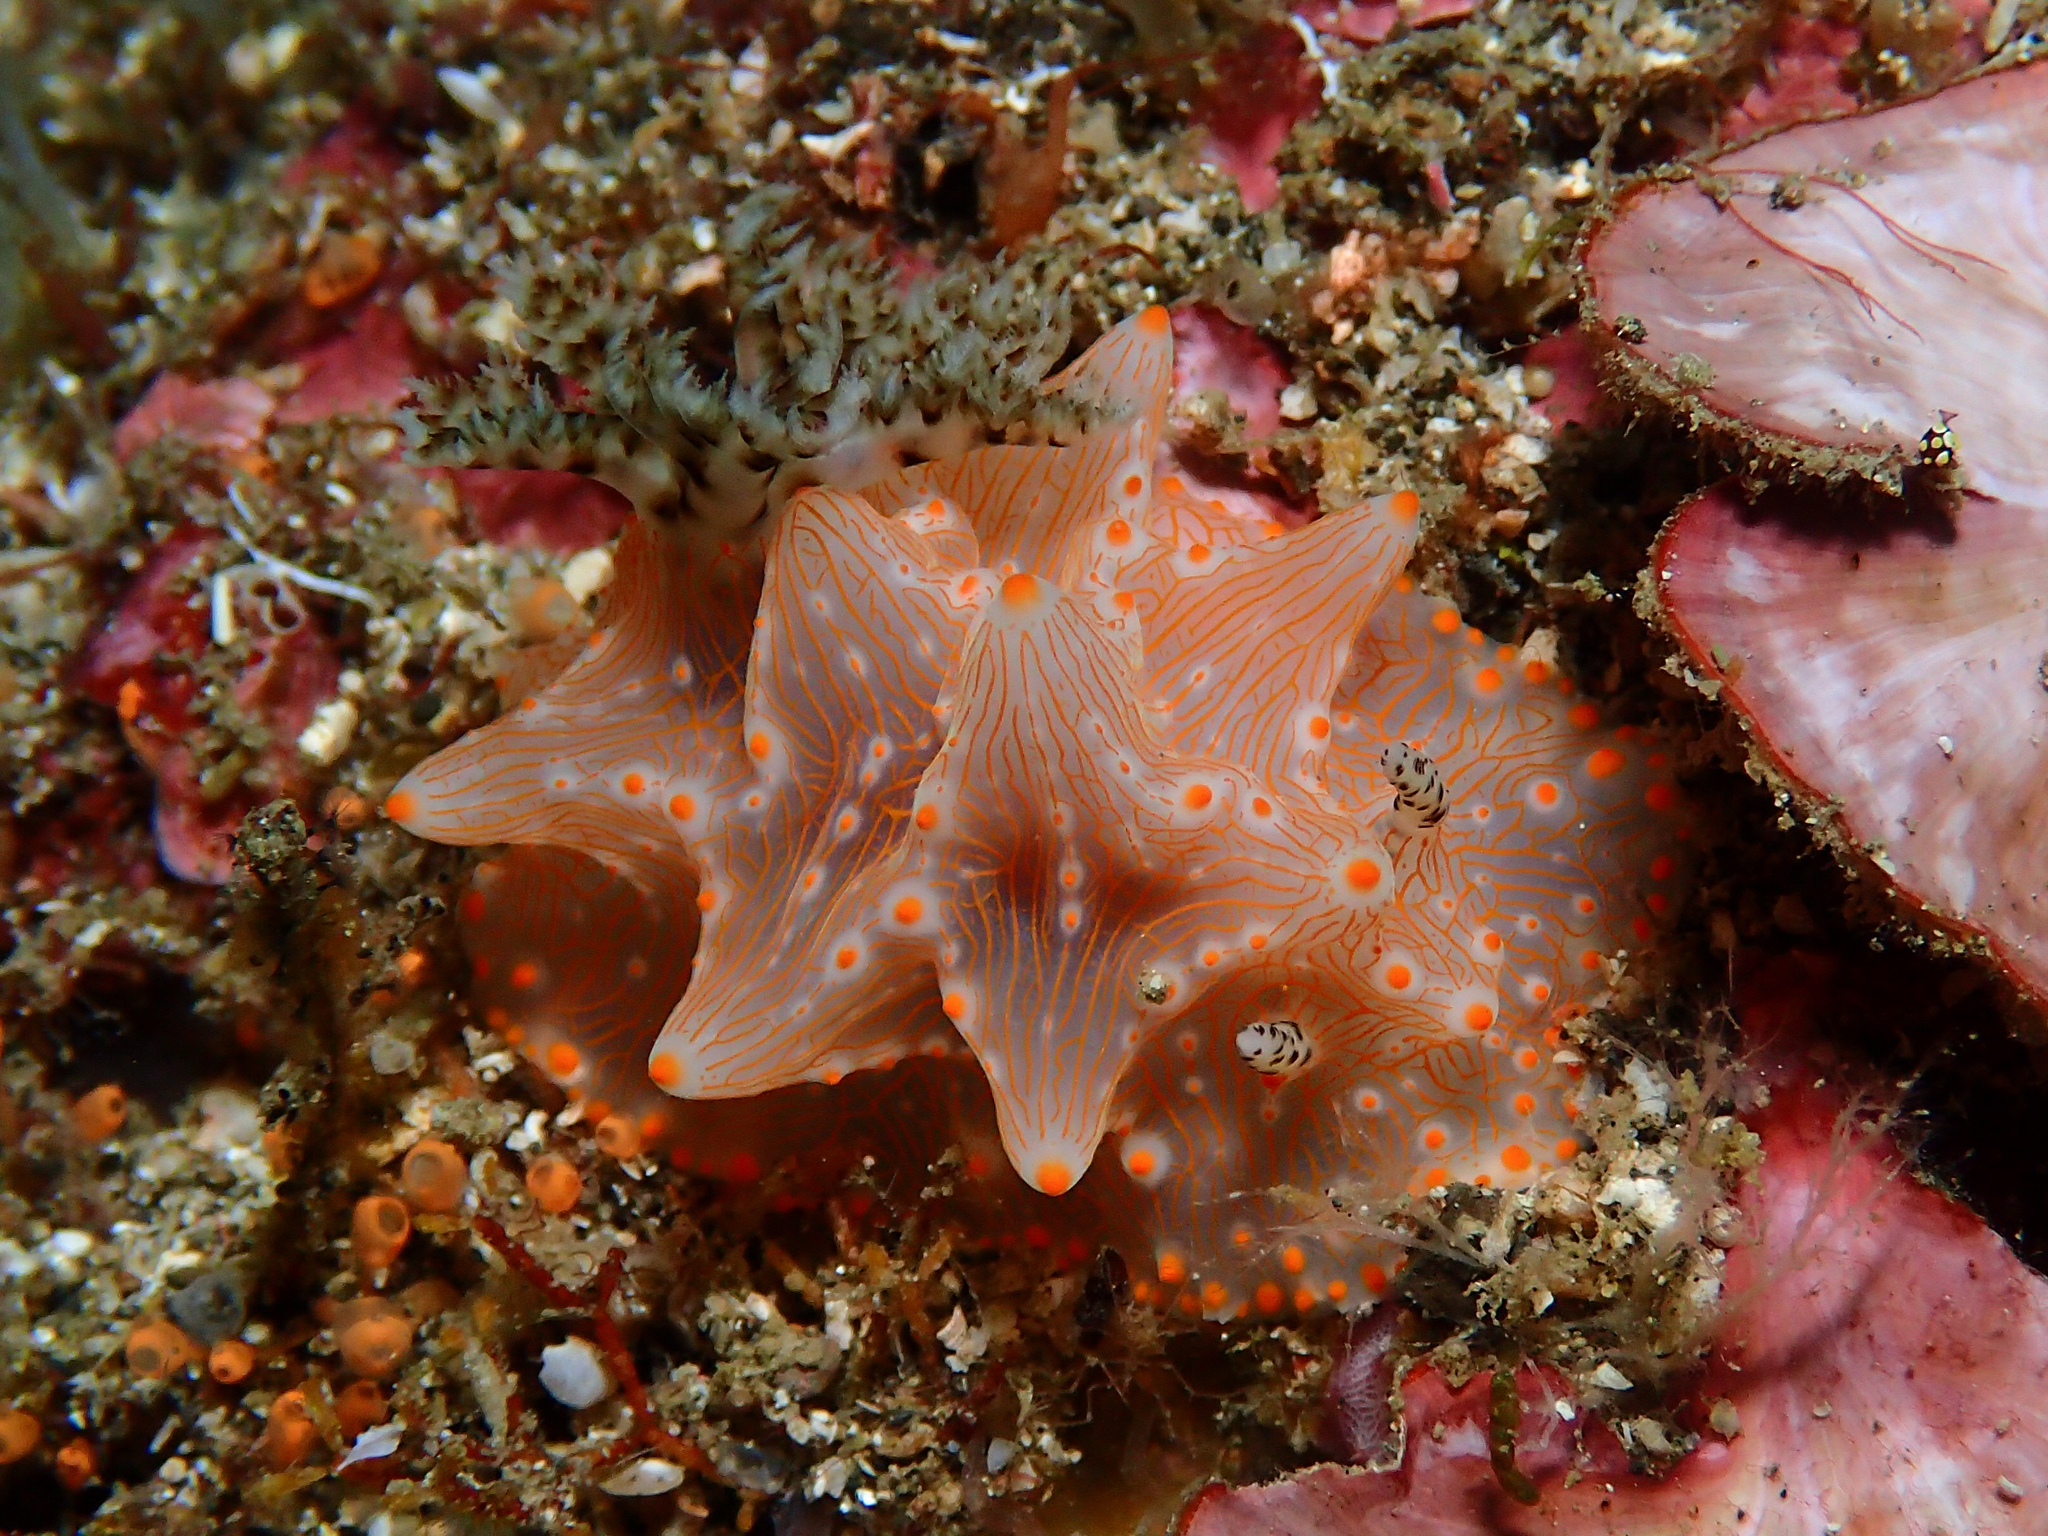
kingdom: Animalia
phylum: Mollusca
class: Gastropoda
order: Nudibranchia
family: Discodorididae
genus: Halgerda
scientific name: Halgerda batangas
